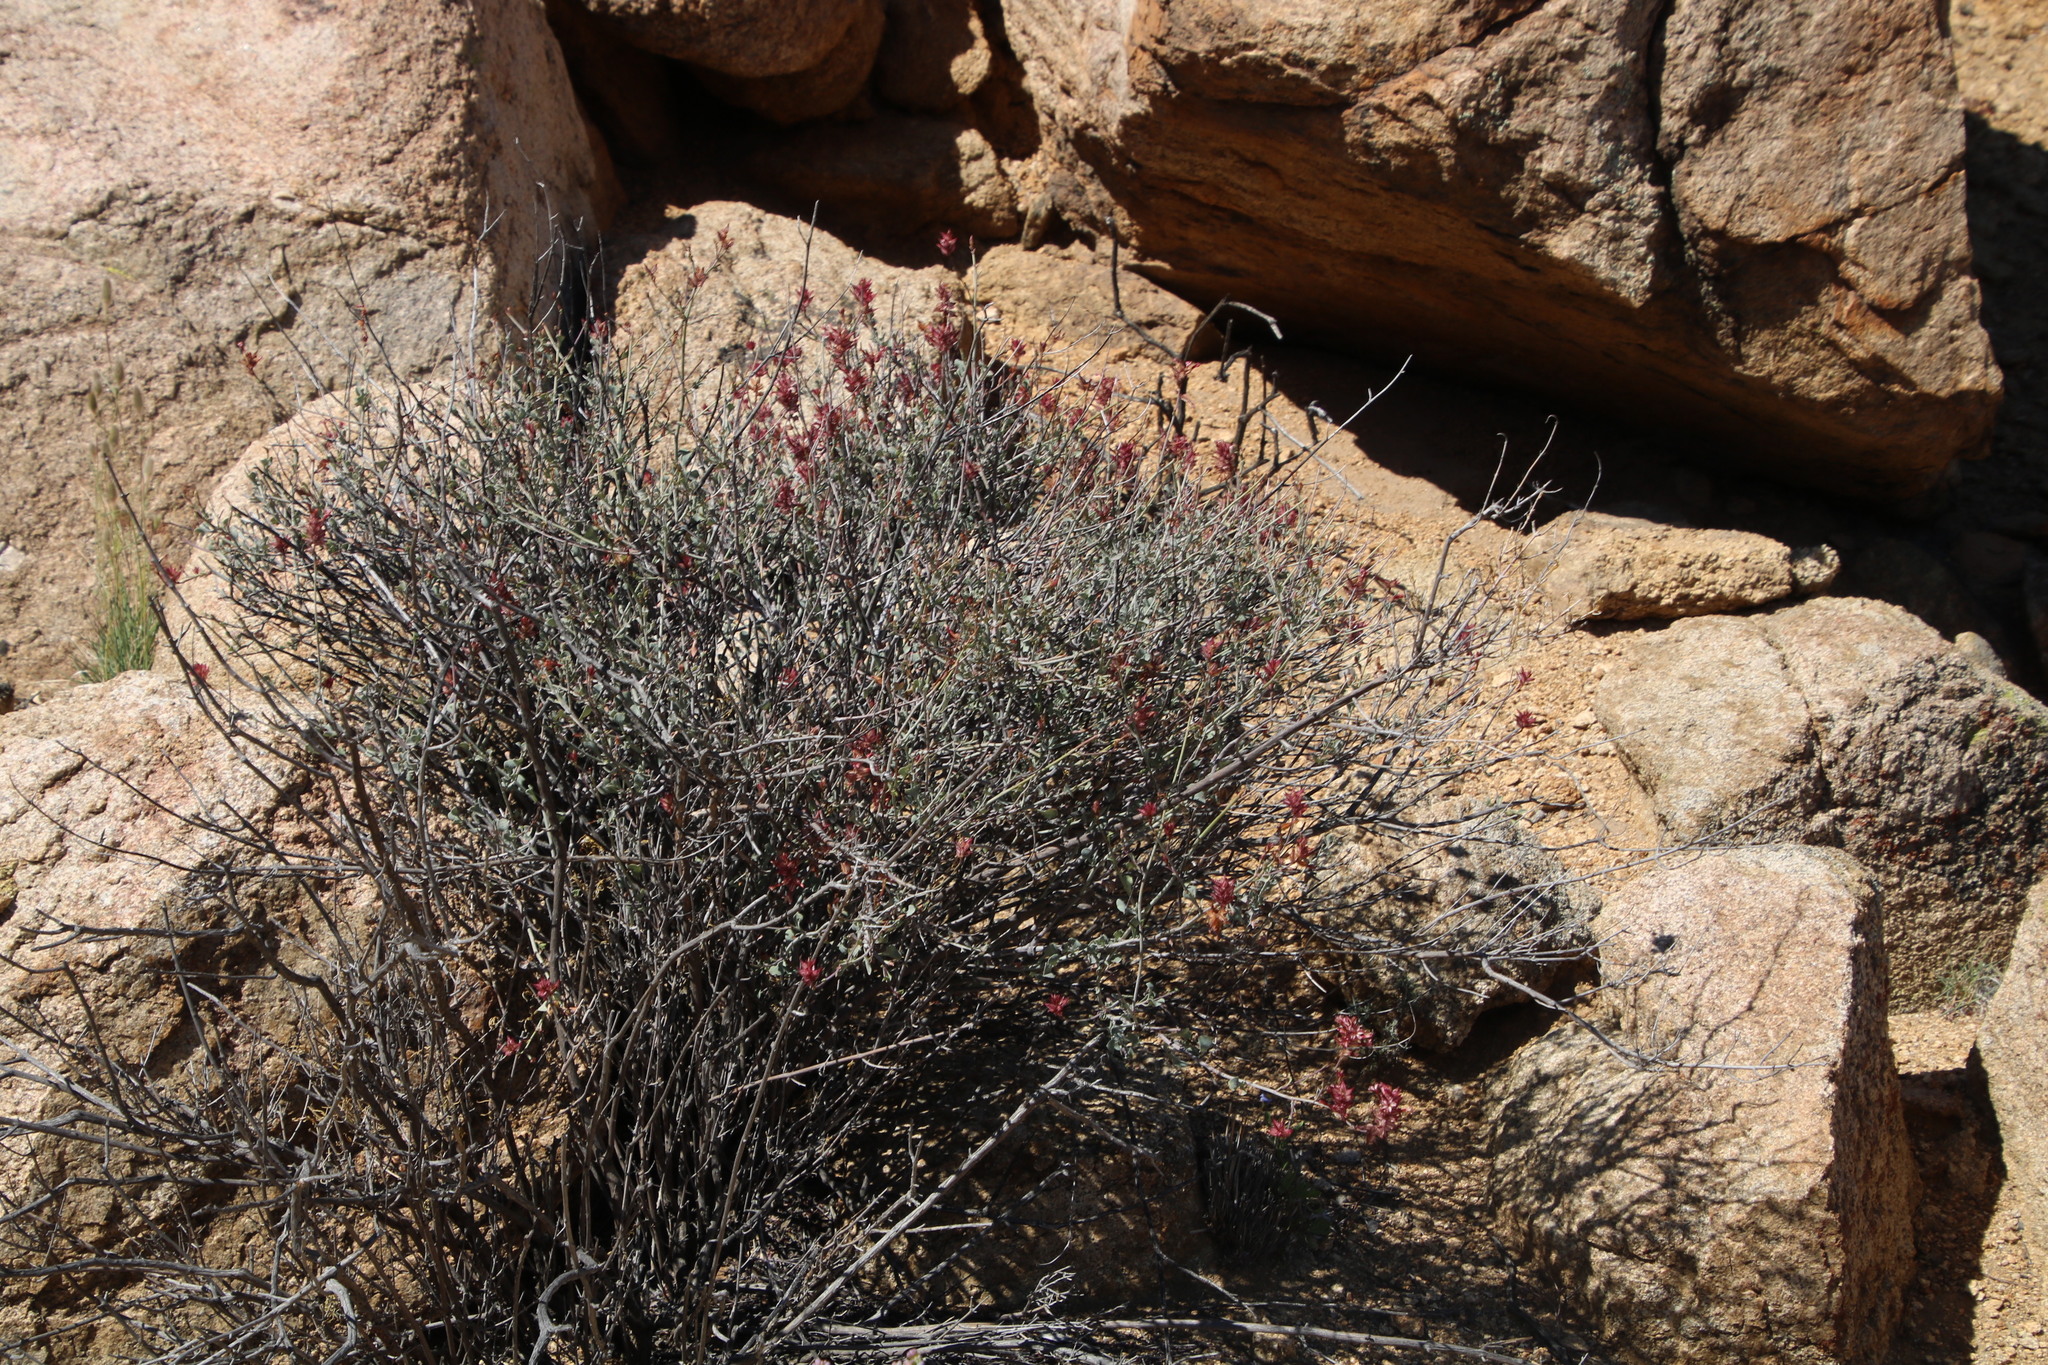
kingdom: Plantae
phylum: Tracheophyta
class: Magnoliopsida
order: Caryophyllales
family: Plumbaginaceae
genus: Dyerophytum
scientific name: Dyerophytum africanum
